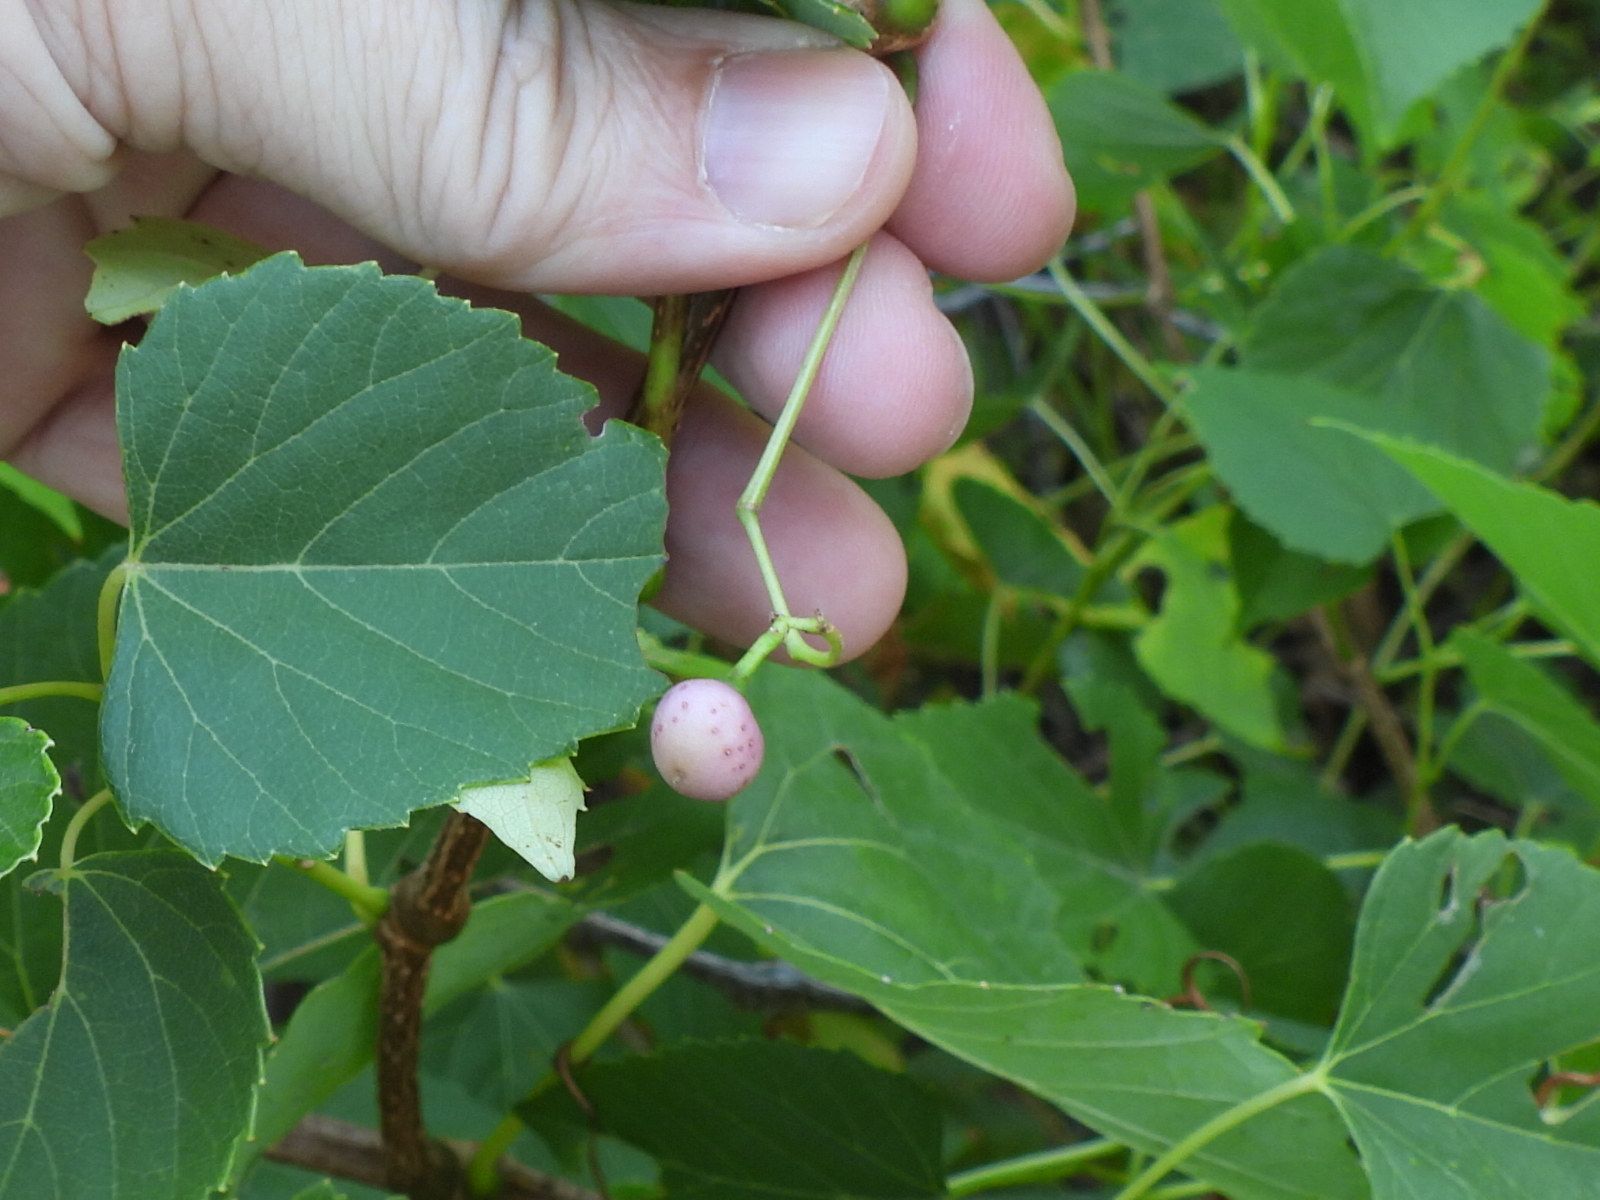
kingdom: Plantae
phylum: Tracheophyta
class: Magnoliopsida
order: Vitales
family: Vitaceae
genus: Ampelopsis
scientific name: Ampelopsis cordata
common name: Heart-leaf ampelopsis
